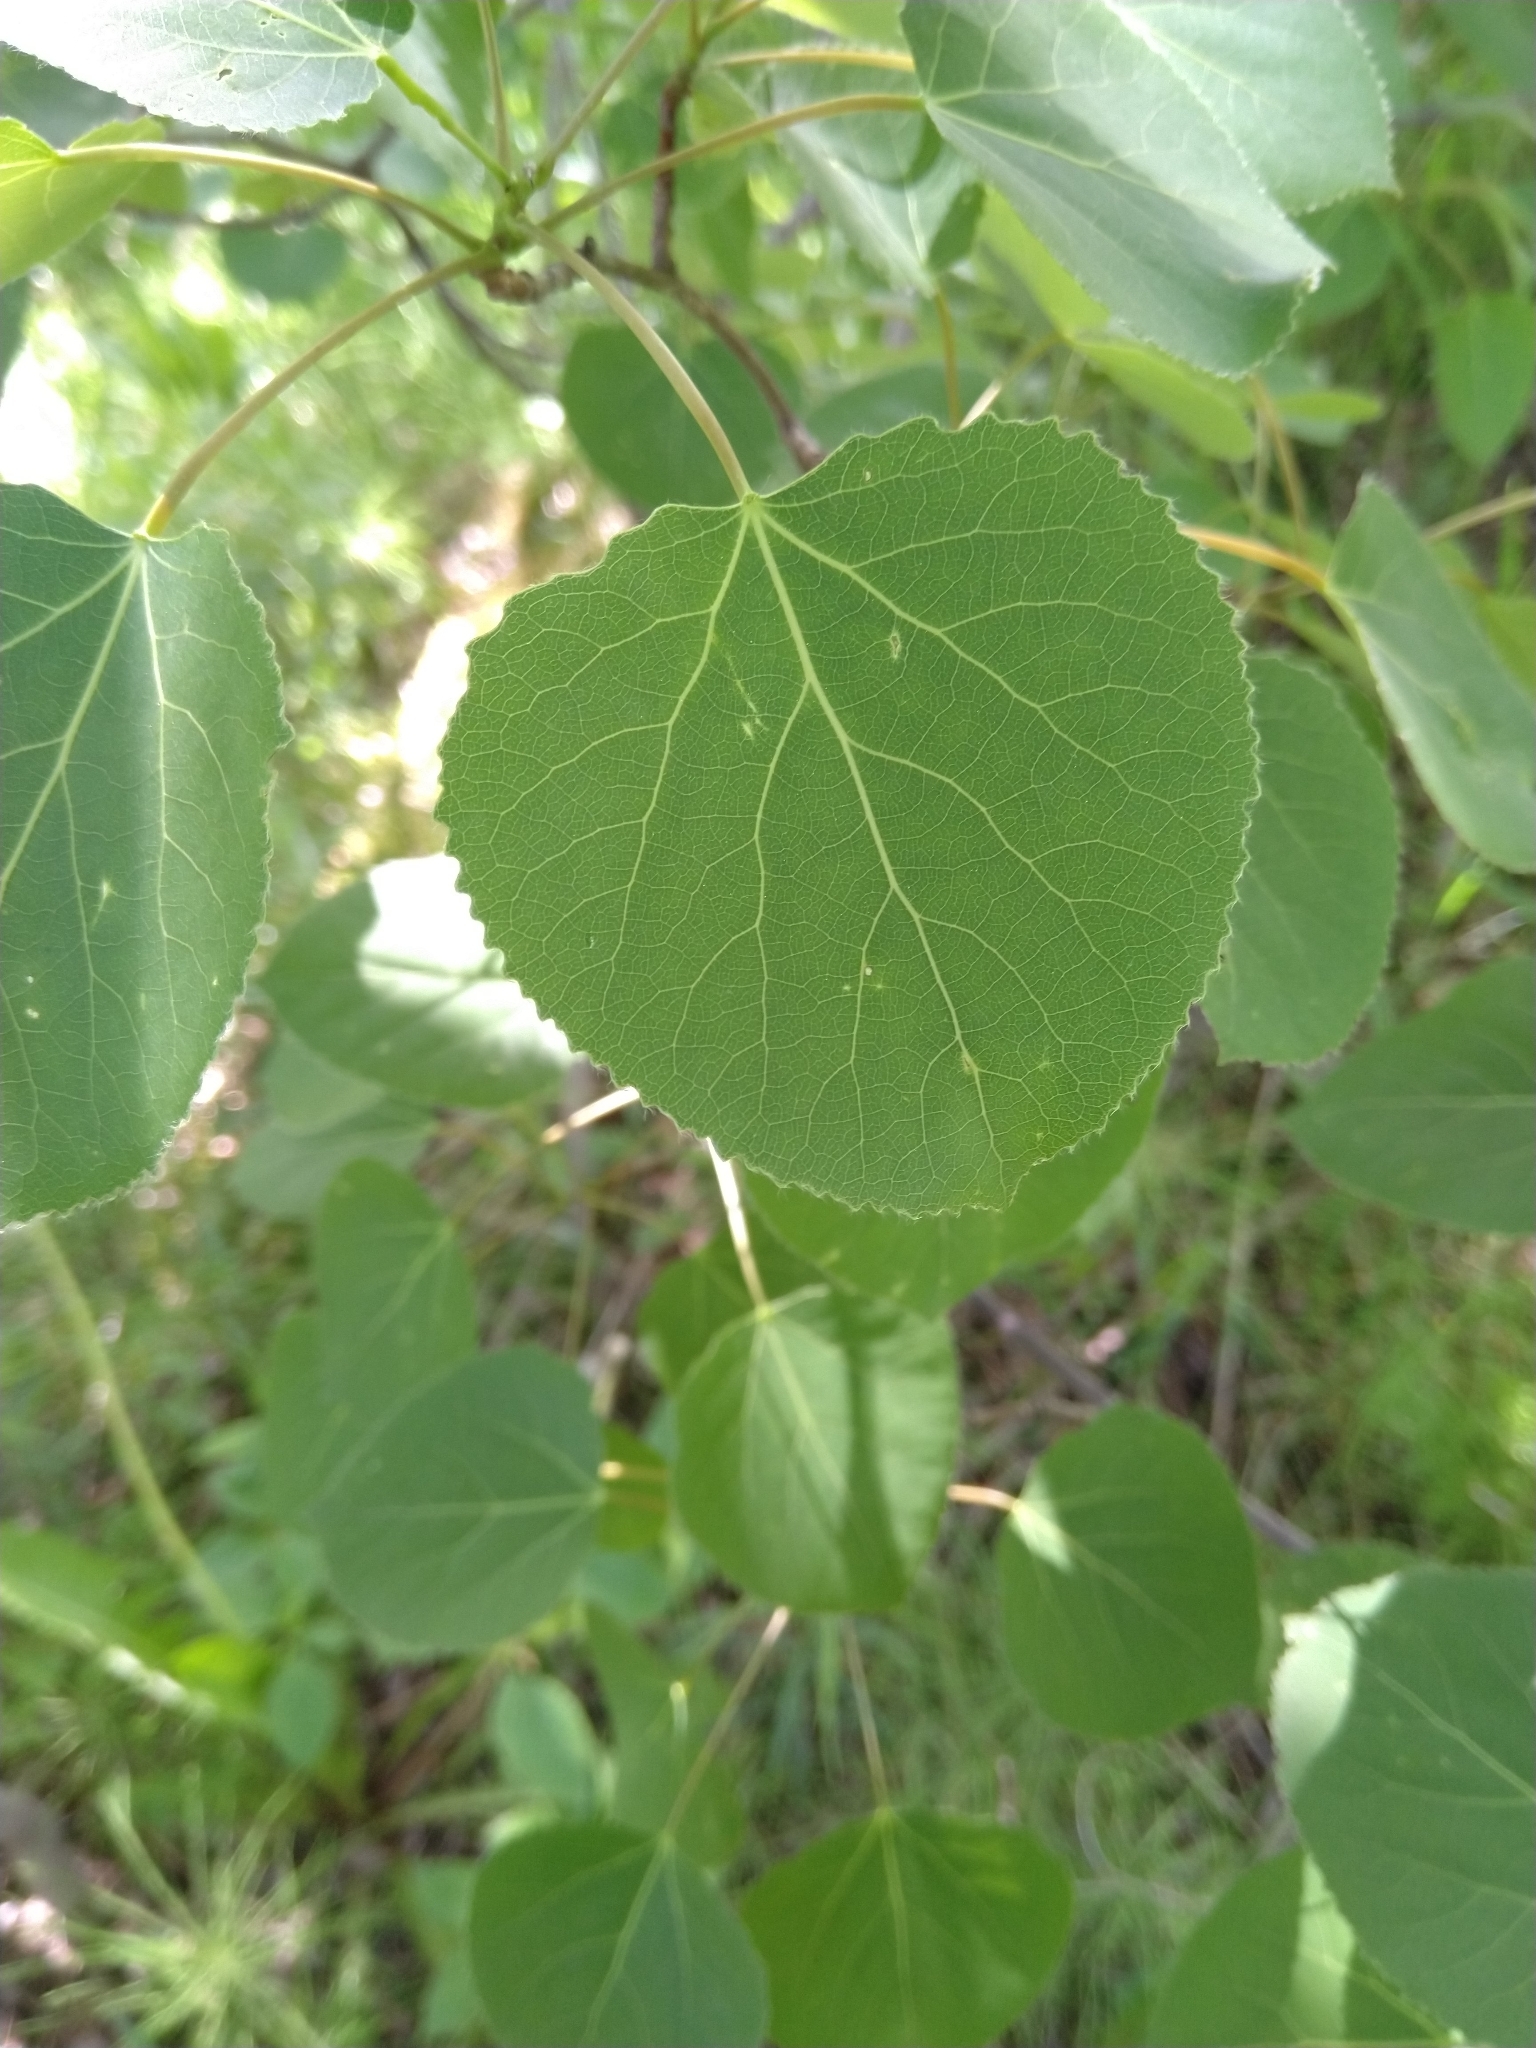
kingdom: Plantae
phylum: Tracheophyta
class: Magnoliopsida
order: Malpighiales
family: Salicaceae
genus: Populus
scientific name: Populus tremuloides
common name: Quaking aspen
